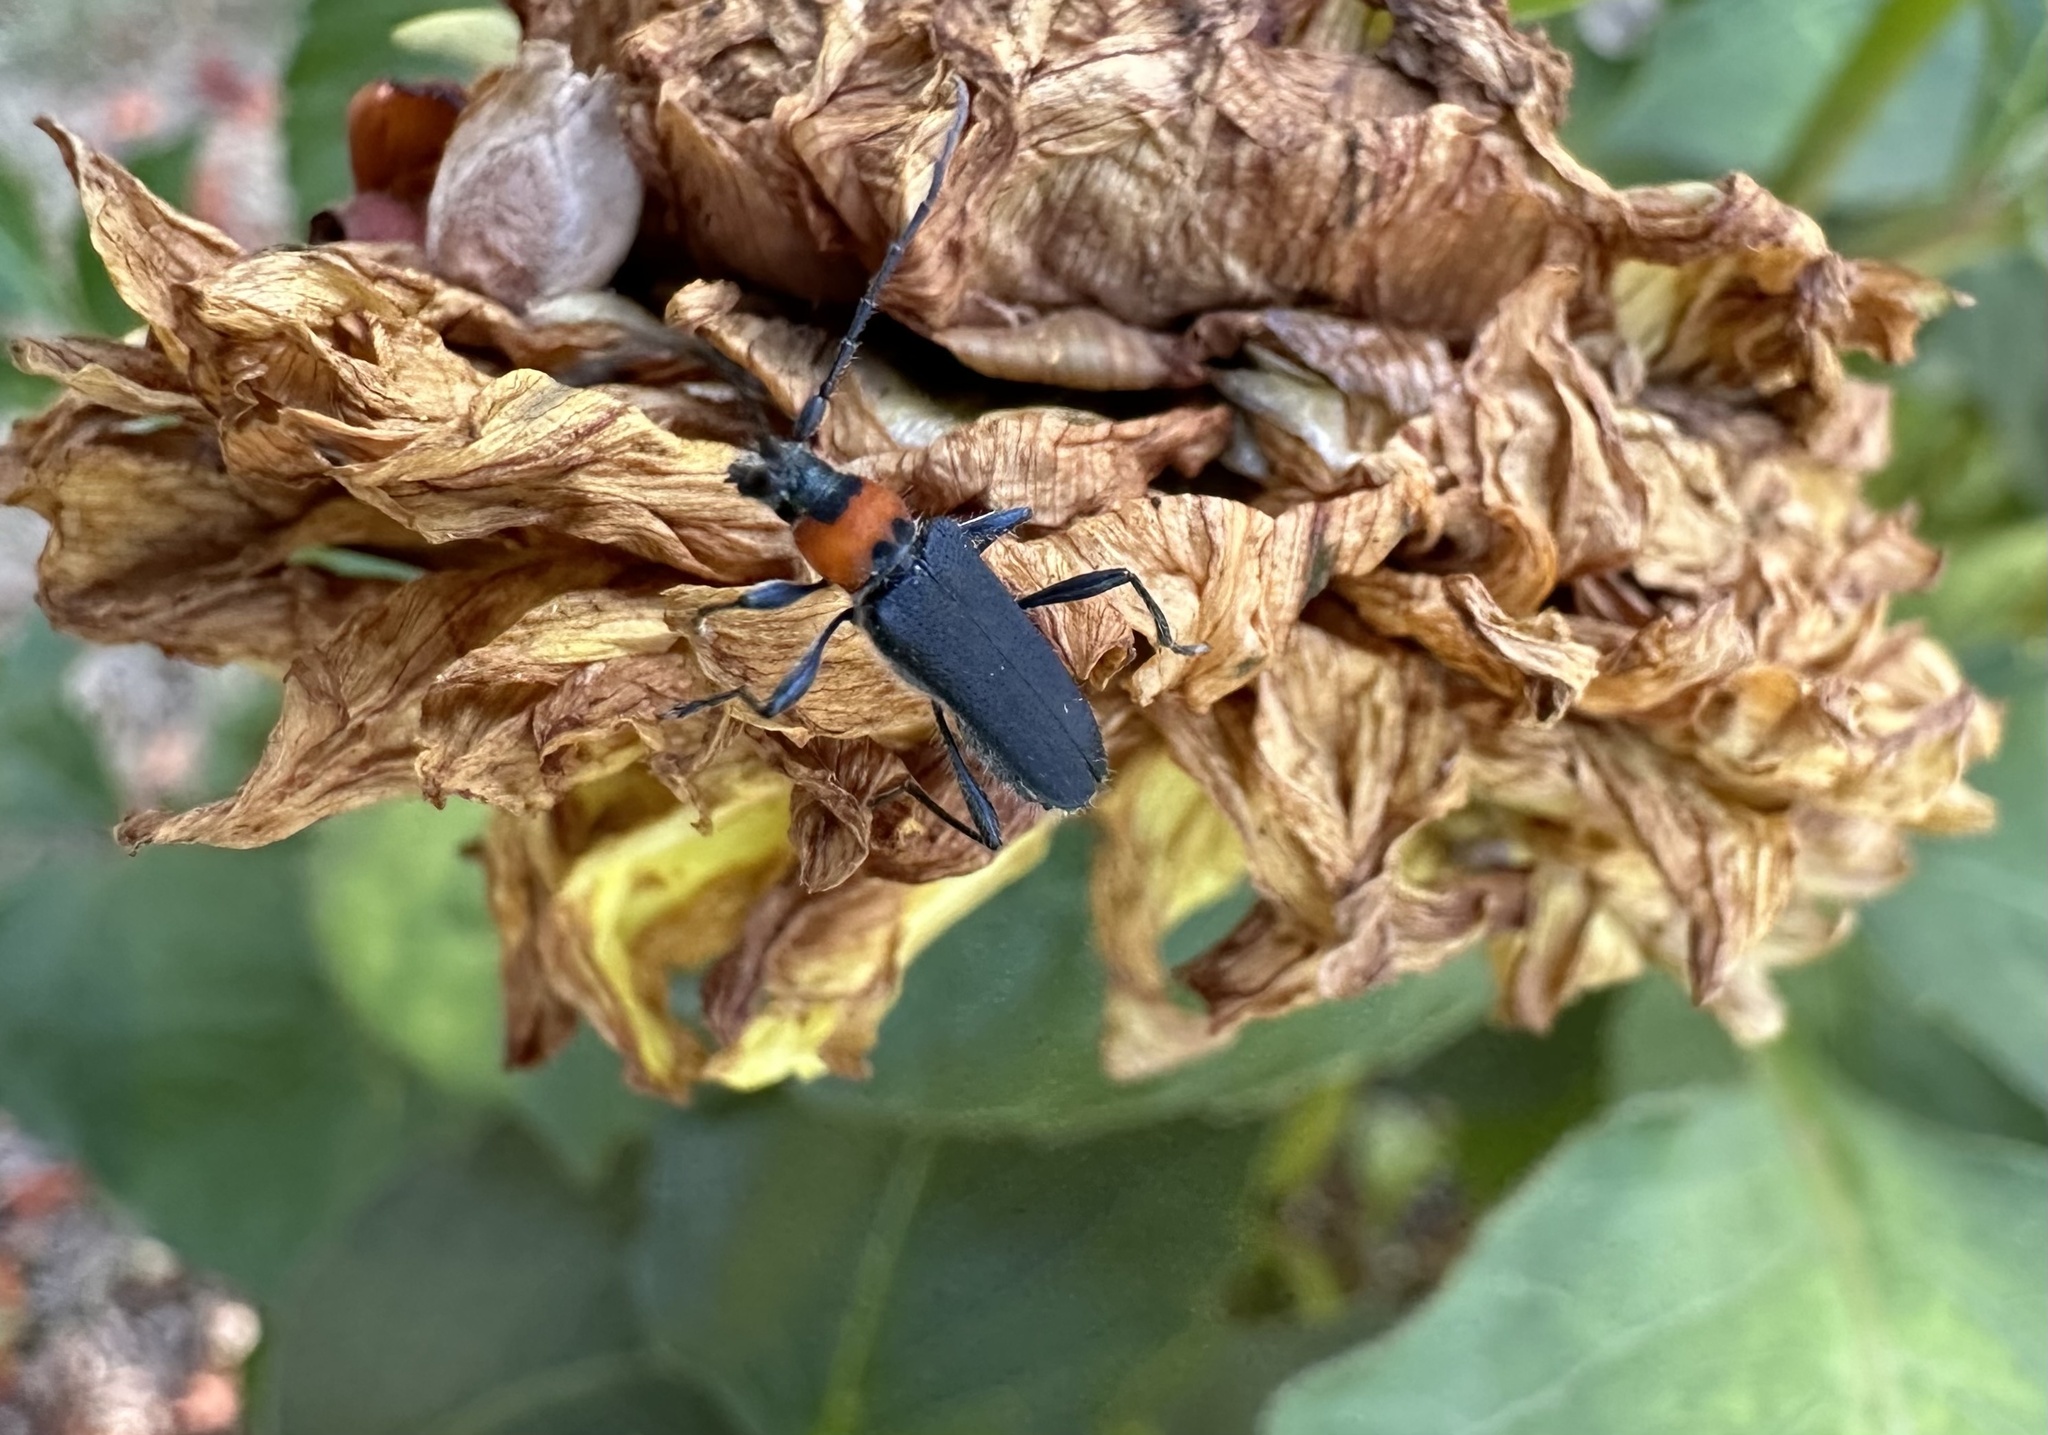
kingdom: Animalia
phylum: Arthropoda
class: Insecta
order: Coleoptera
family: Cerambycidae
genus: Eryphus
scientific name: Eryphus laetus
